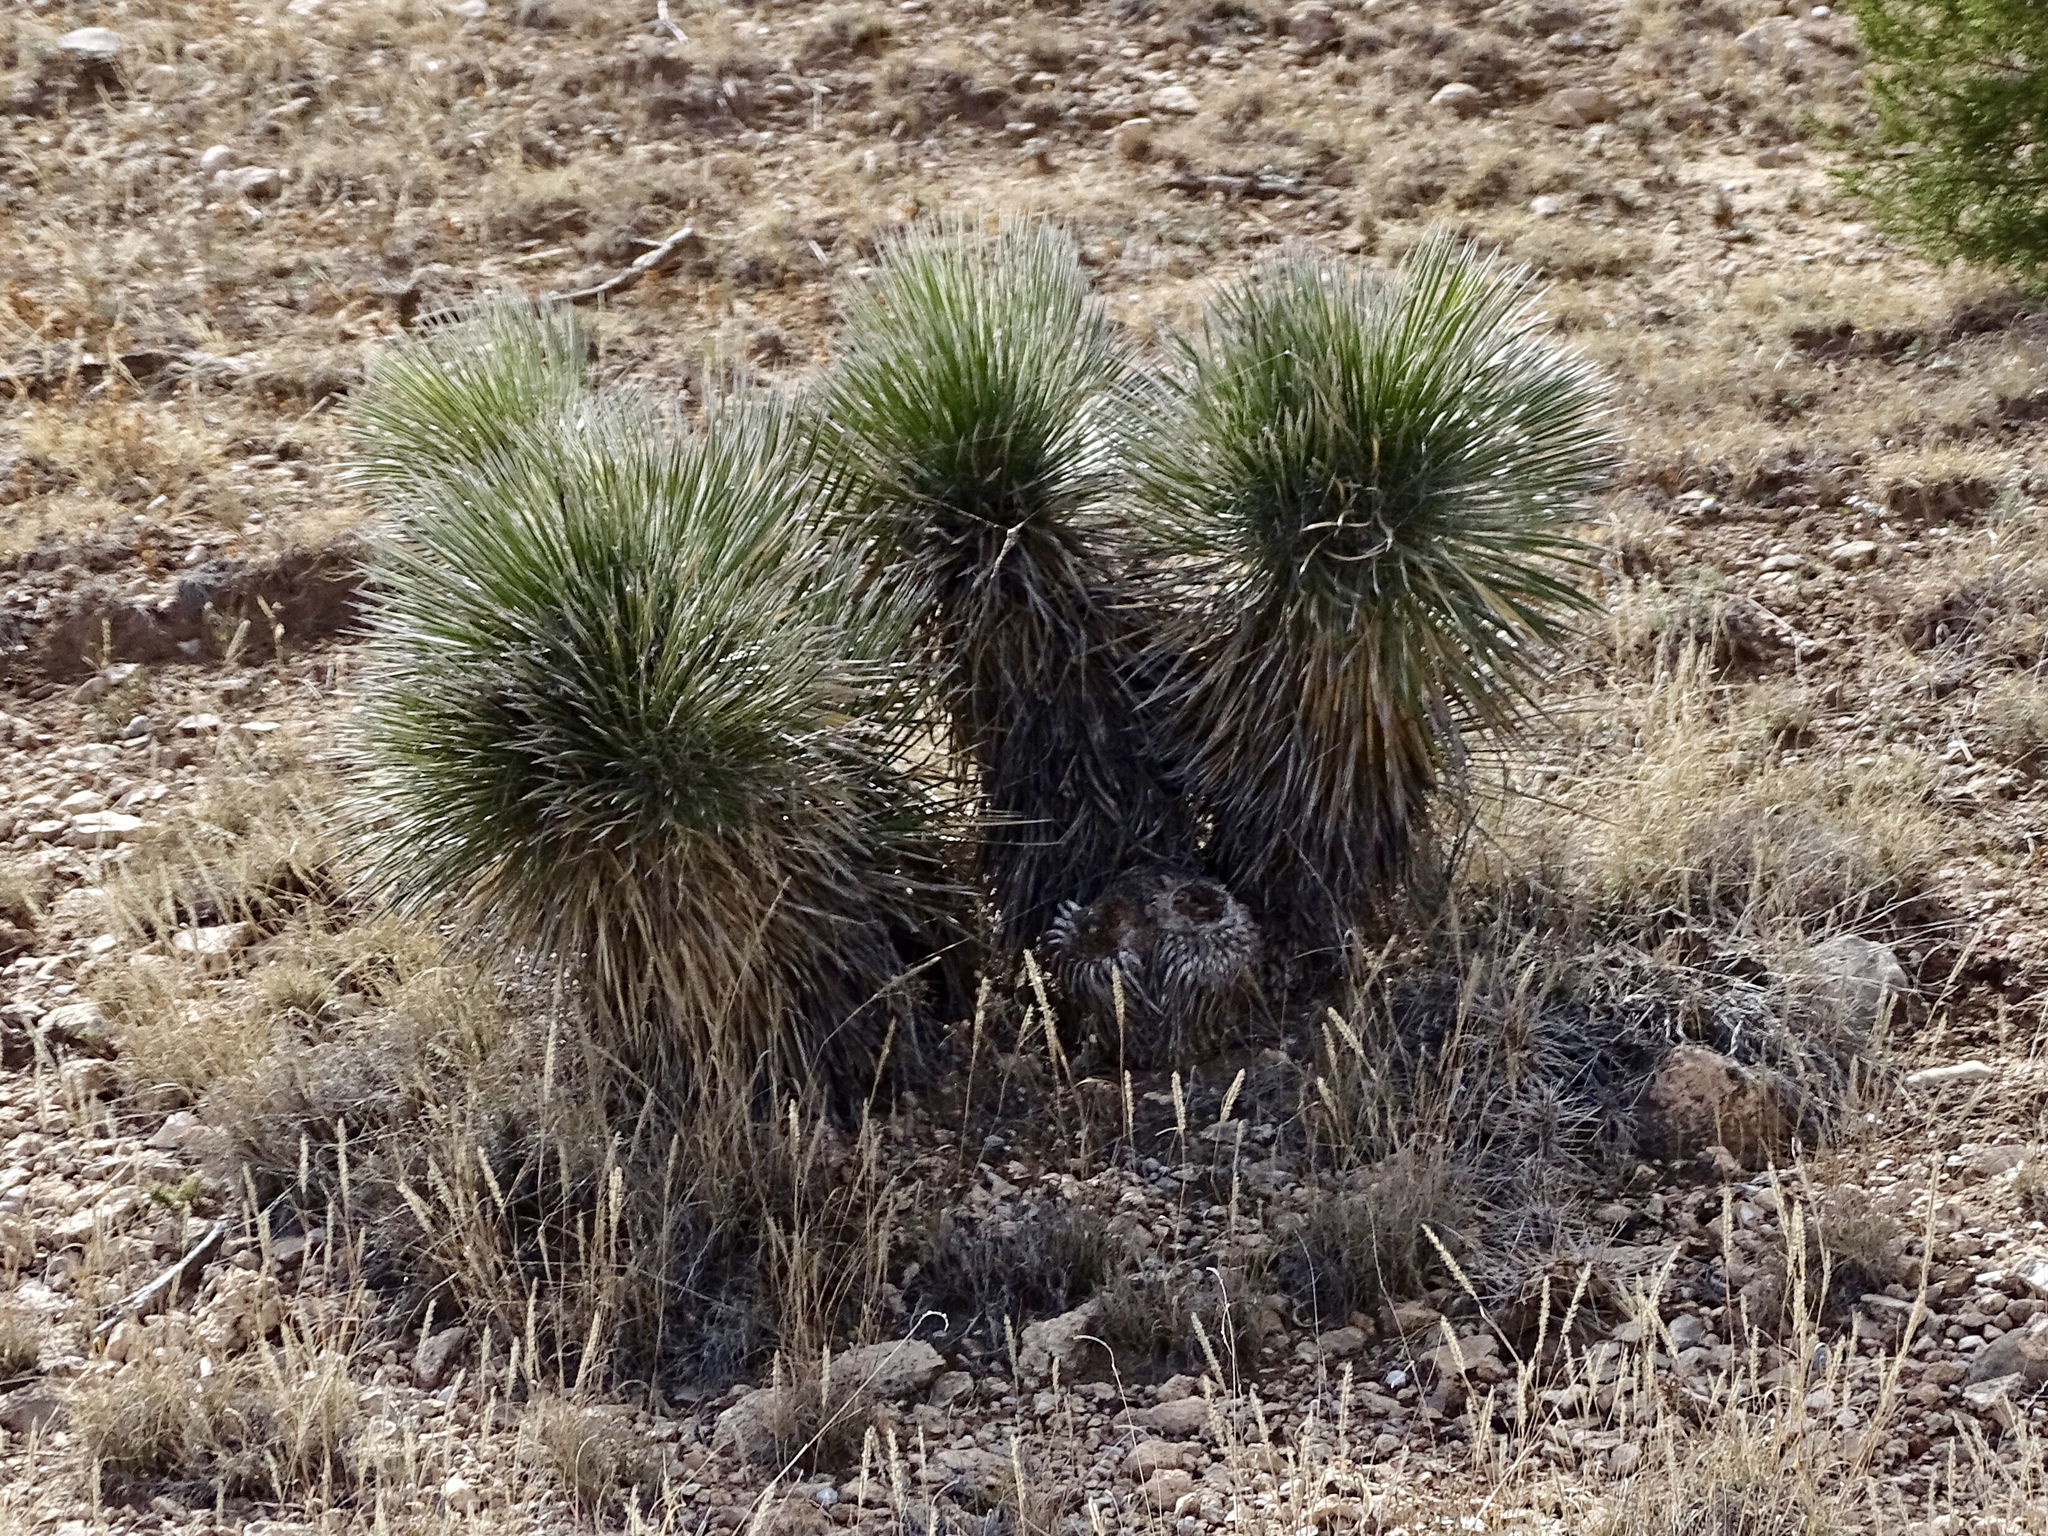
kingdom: Plantae
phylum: Tracheophyta
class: Liliopsida
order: Asparagales
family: Asparagaceae
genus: Yucca
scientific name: Yucca elata
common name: Palmella
